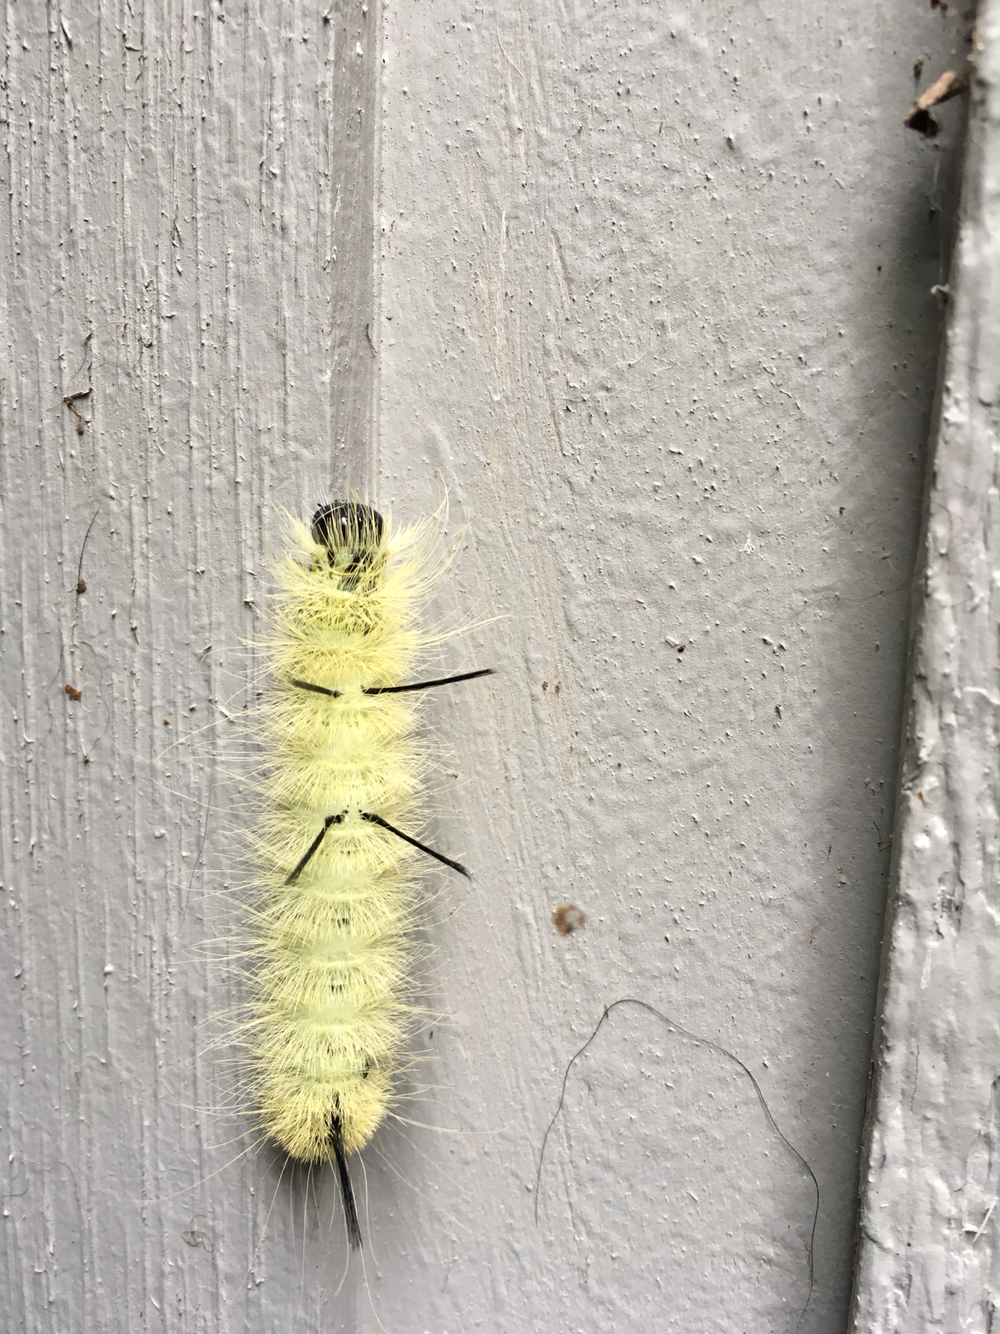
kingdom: Animalia
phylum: Arthropoda
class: Insecta
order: Lepidoptera
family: Noctuidae
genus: Acronicta
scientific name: Acronicta americana
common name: American dagger
